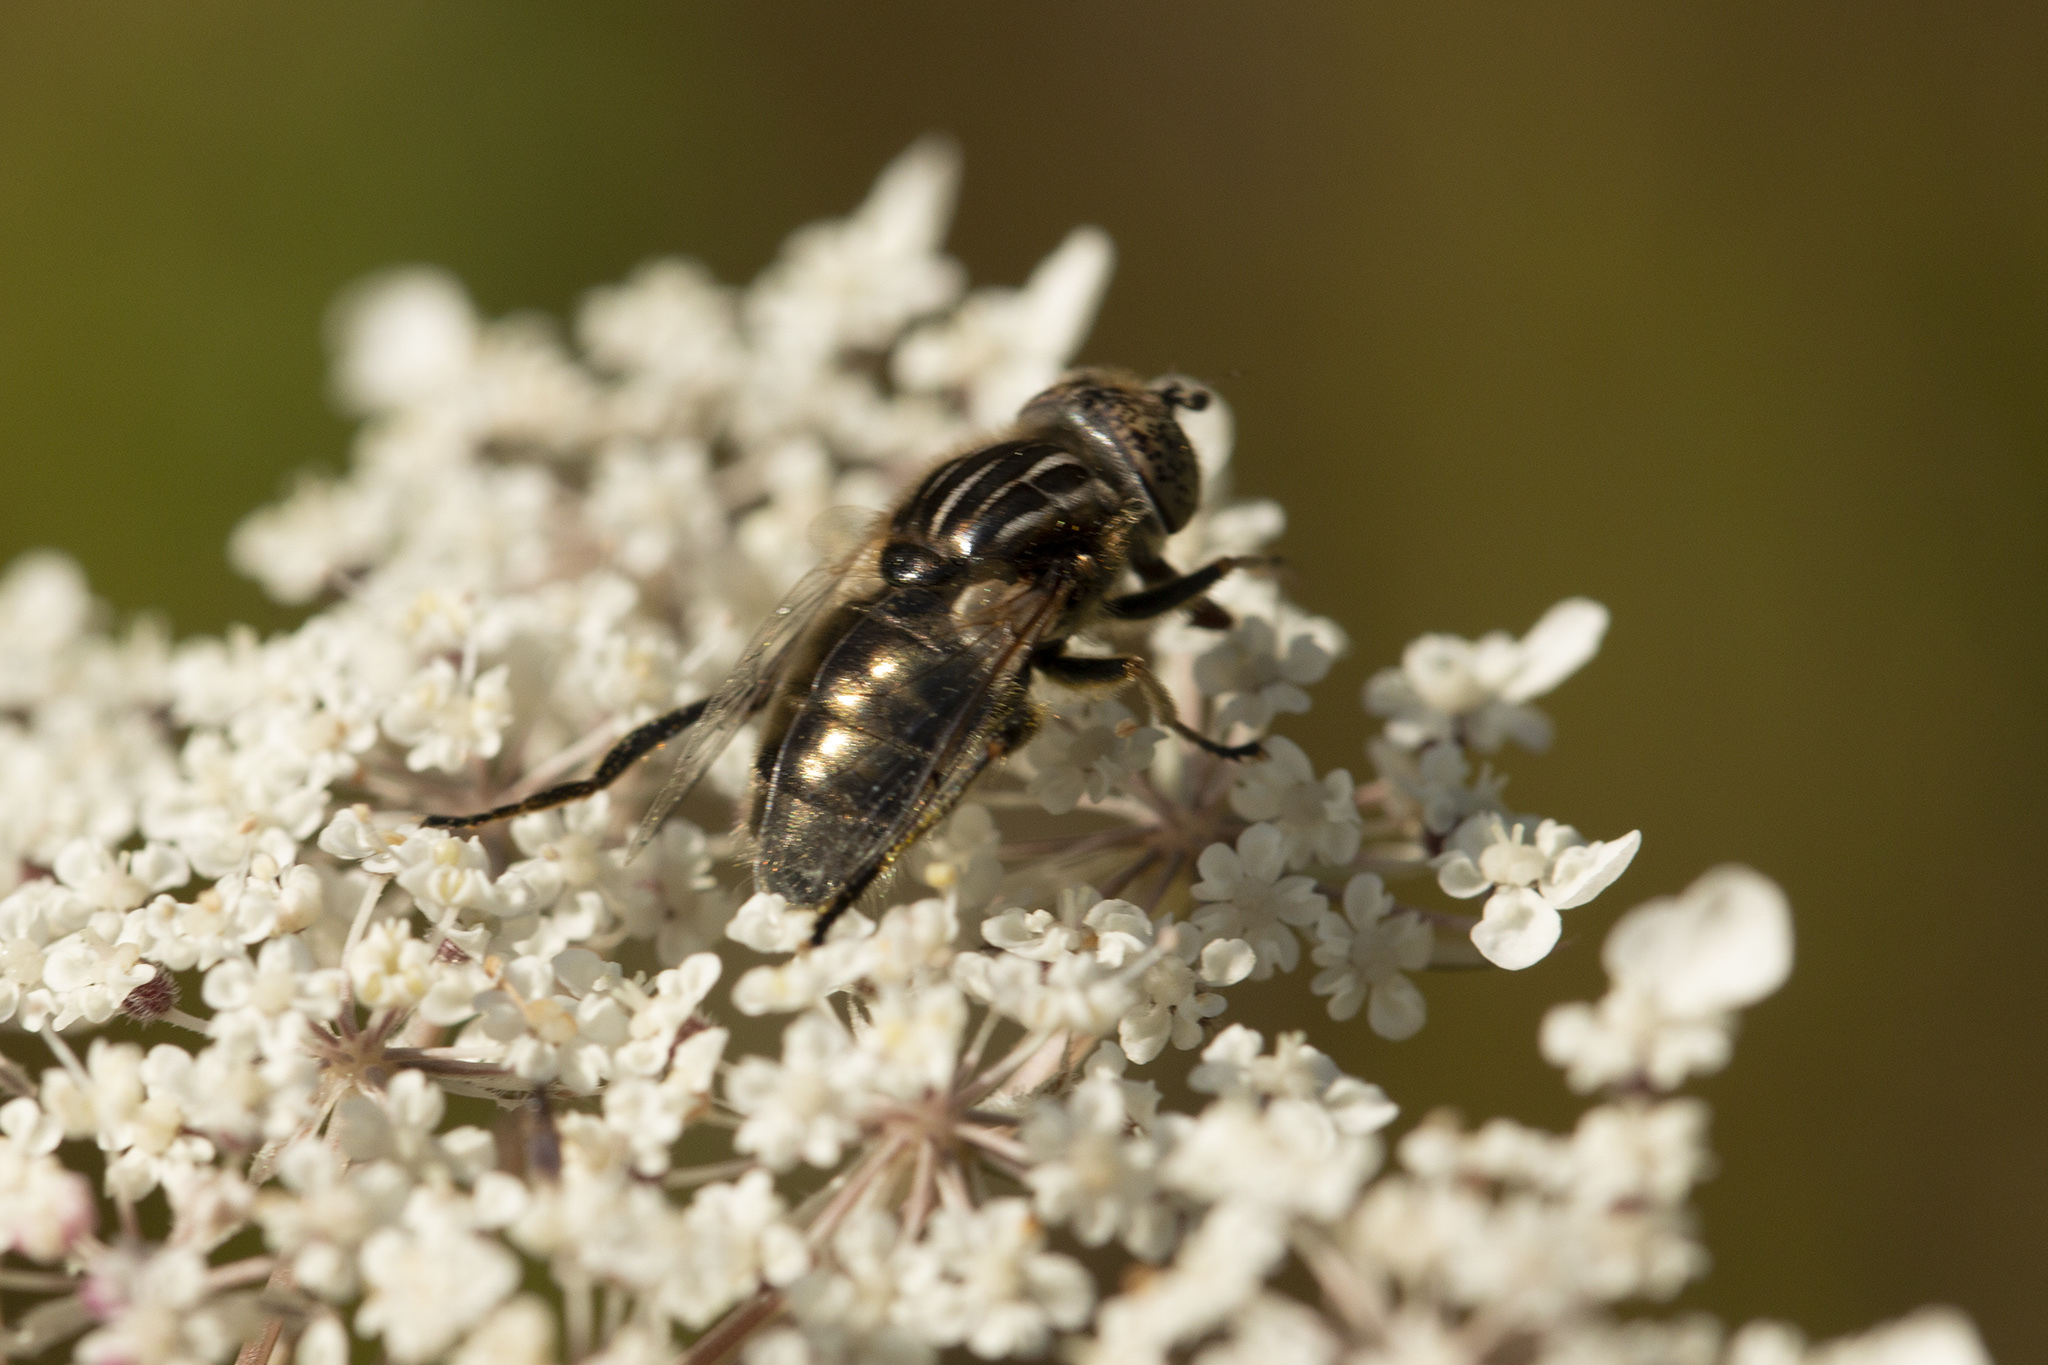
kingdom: Animalia
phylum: Arthropoda
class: Insecta
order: Diptera
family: Syrphidae
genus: Eristalinus
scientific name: Eristalinus sepulchralis
